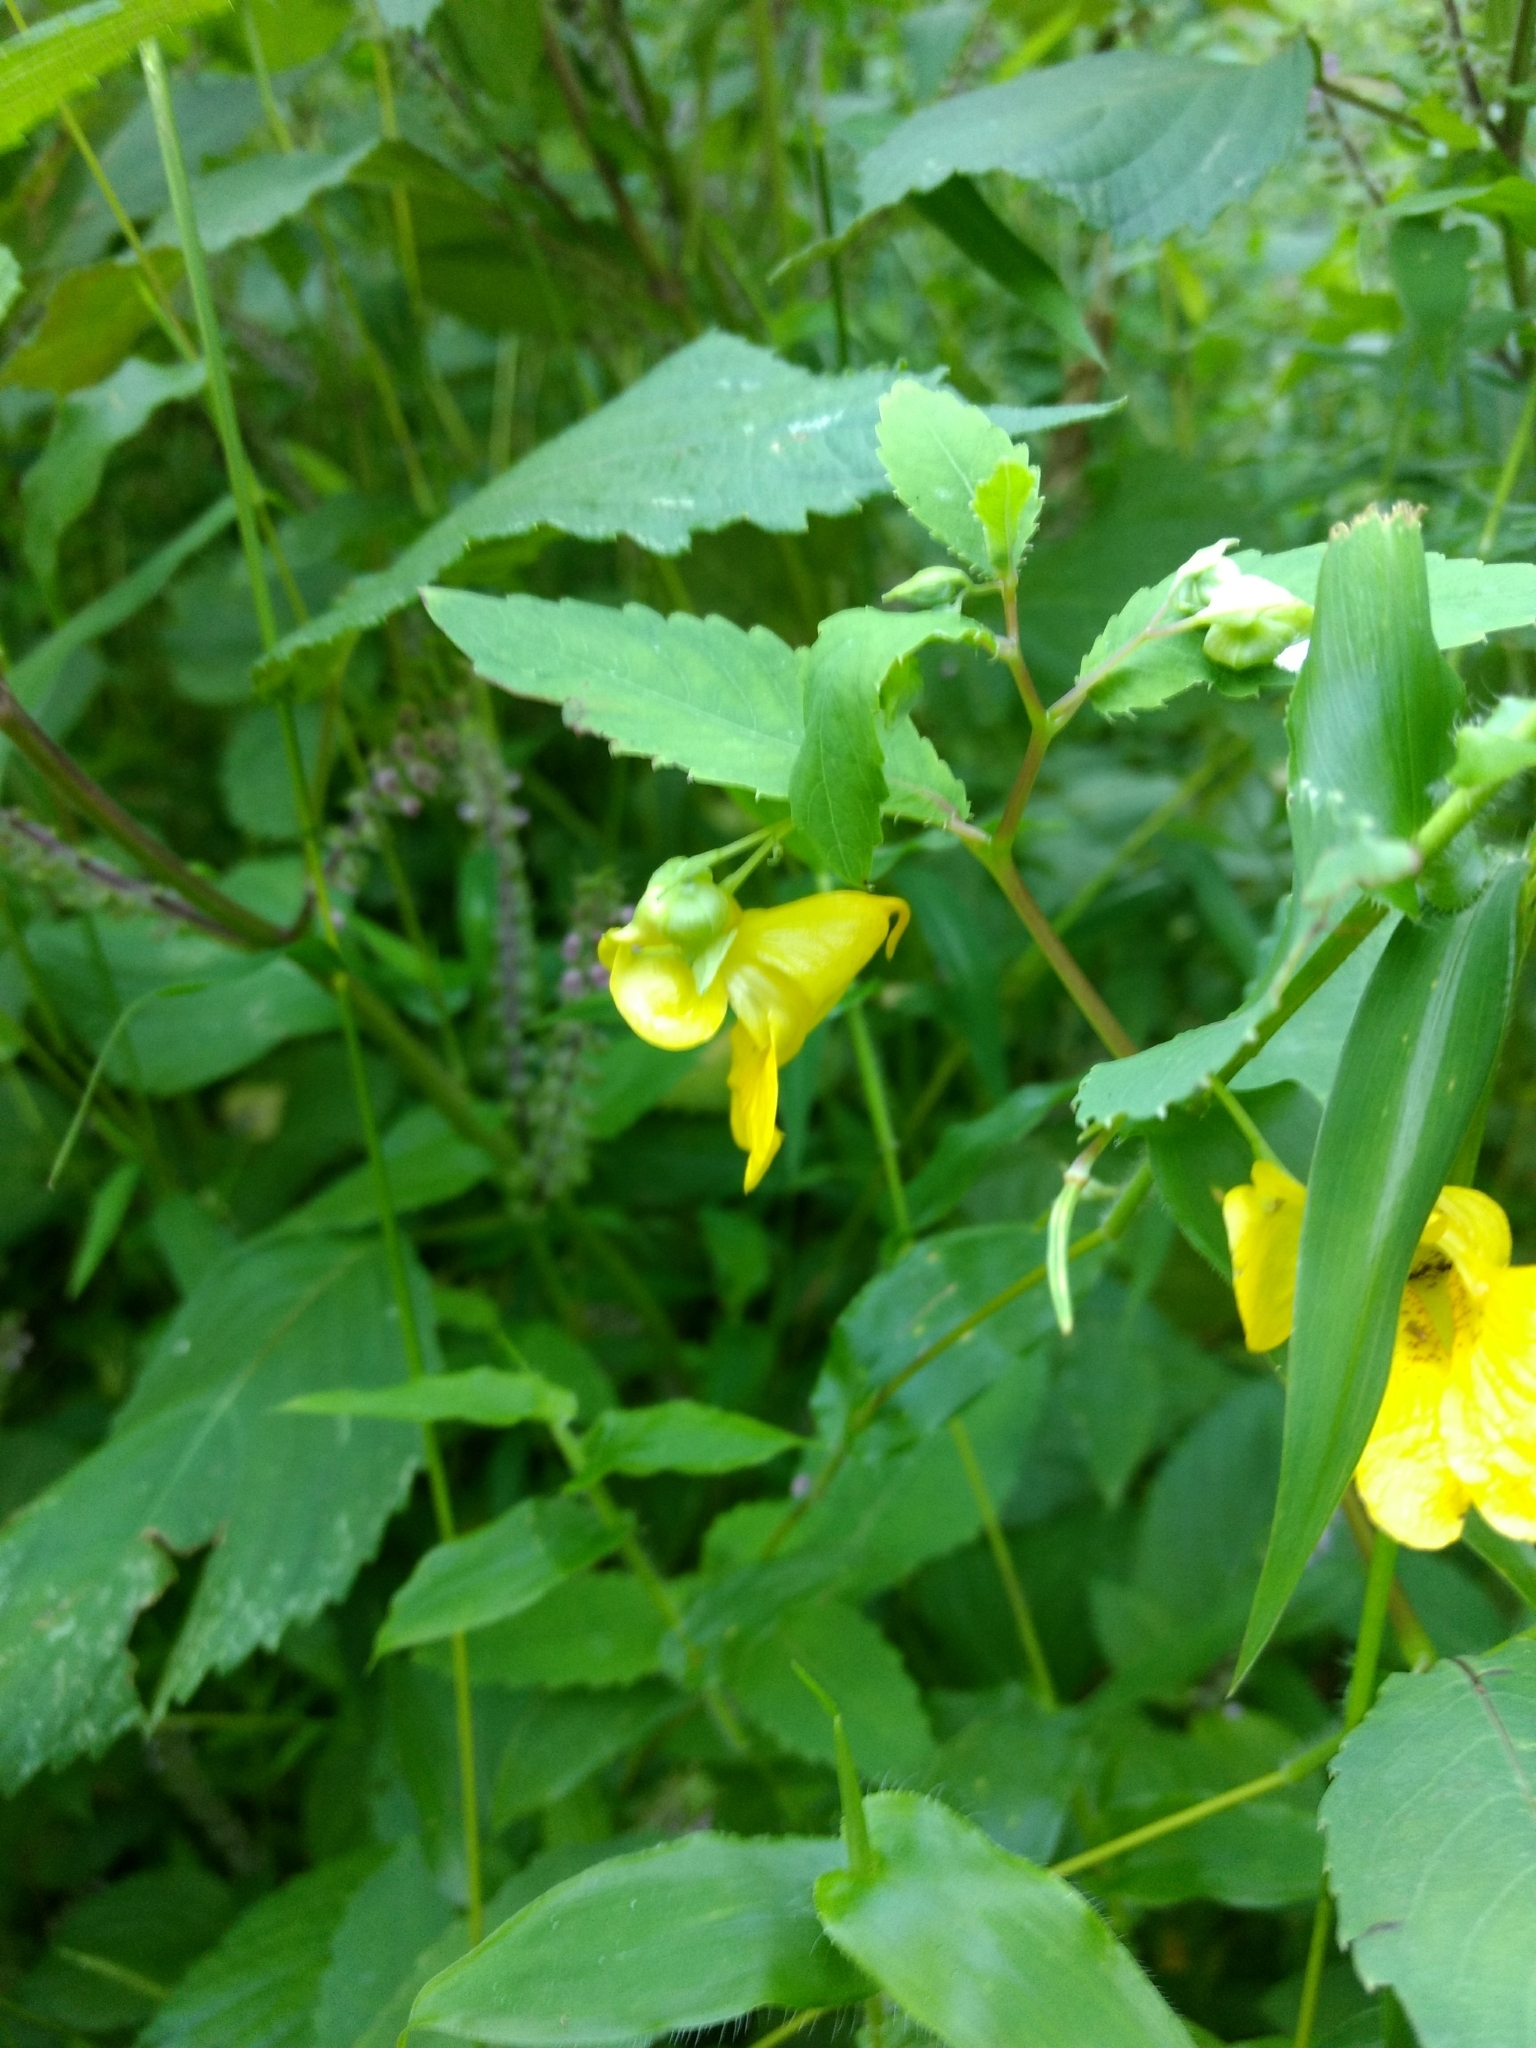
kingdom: Plantae
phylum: Tracheophyta
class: Magnoliopsida
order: Ericales
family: Balsaminaceae
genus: Impatiens
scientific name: Impatiens pallida
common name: Pale snapweed
